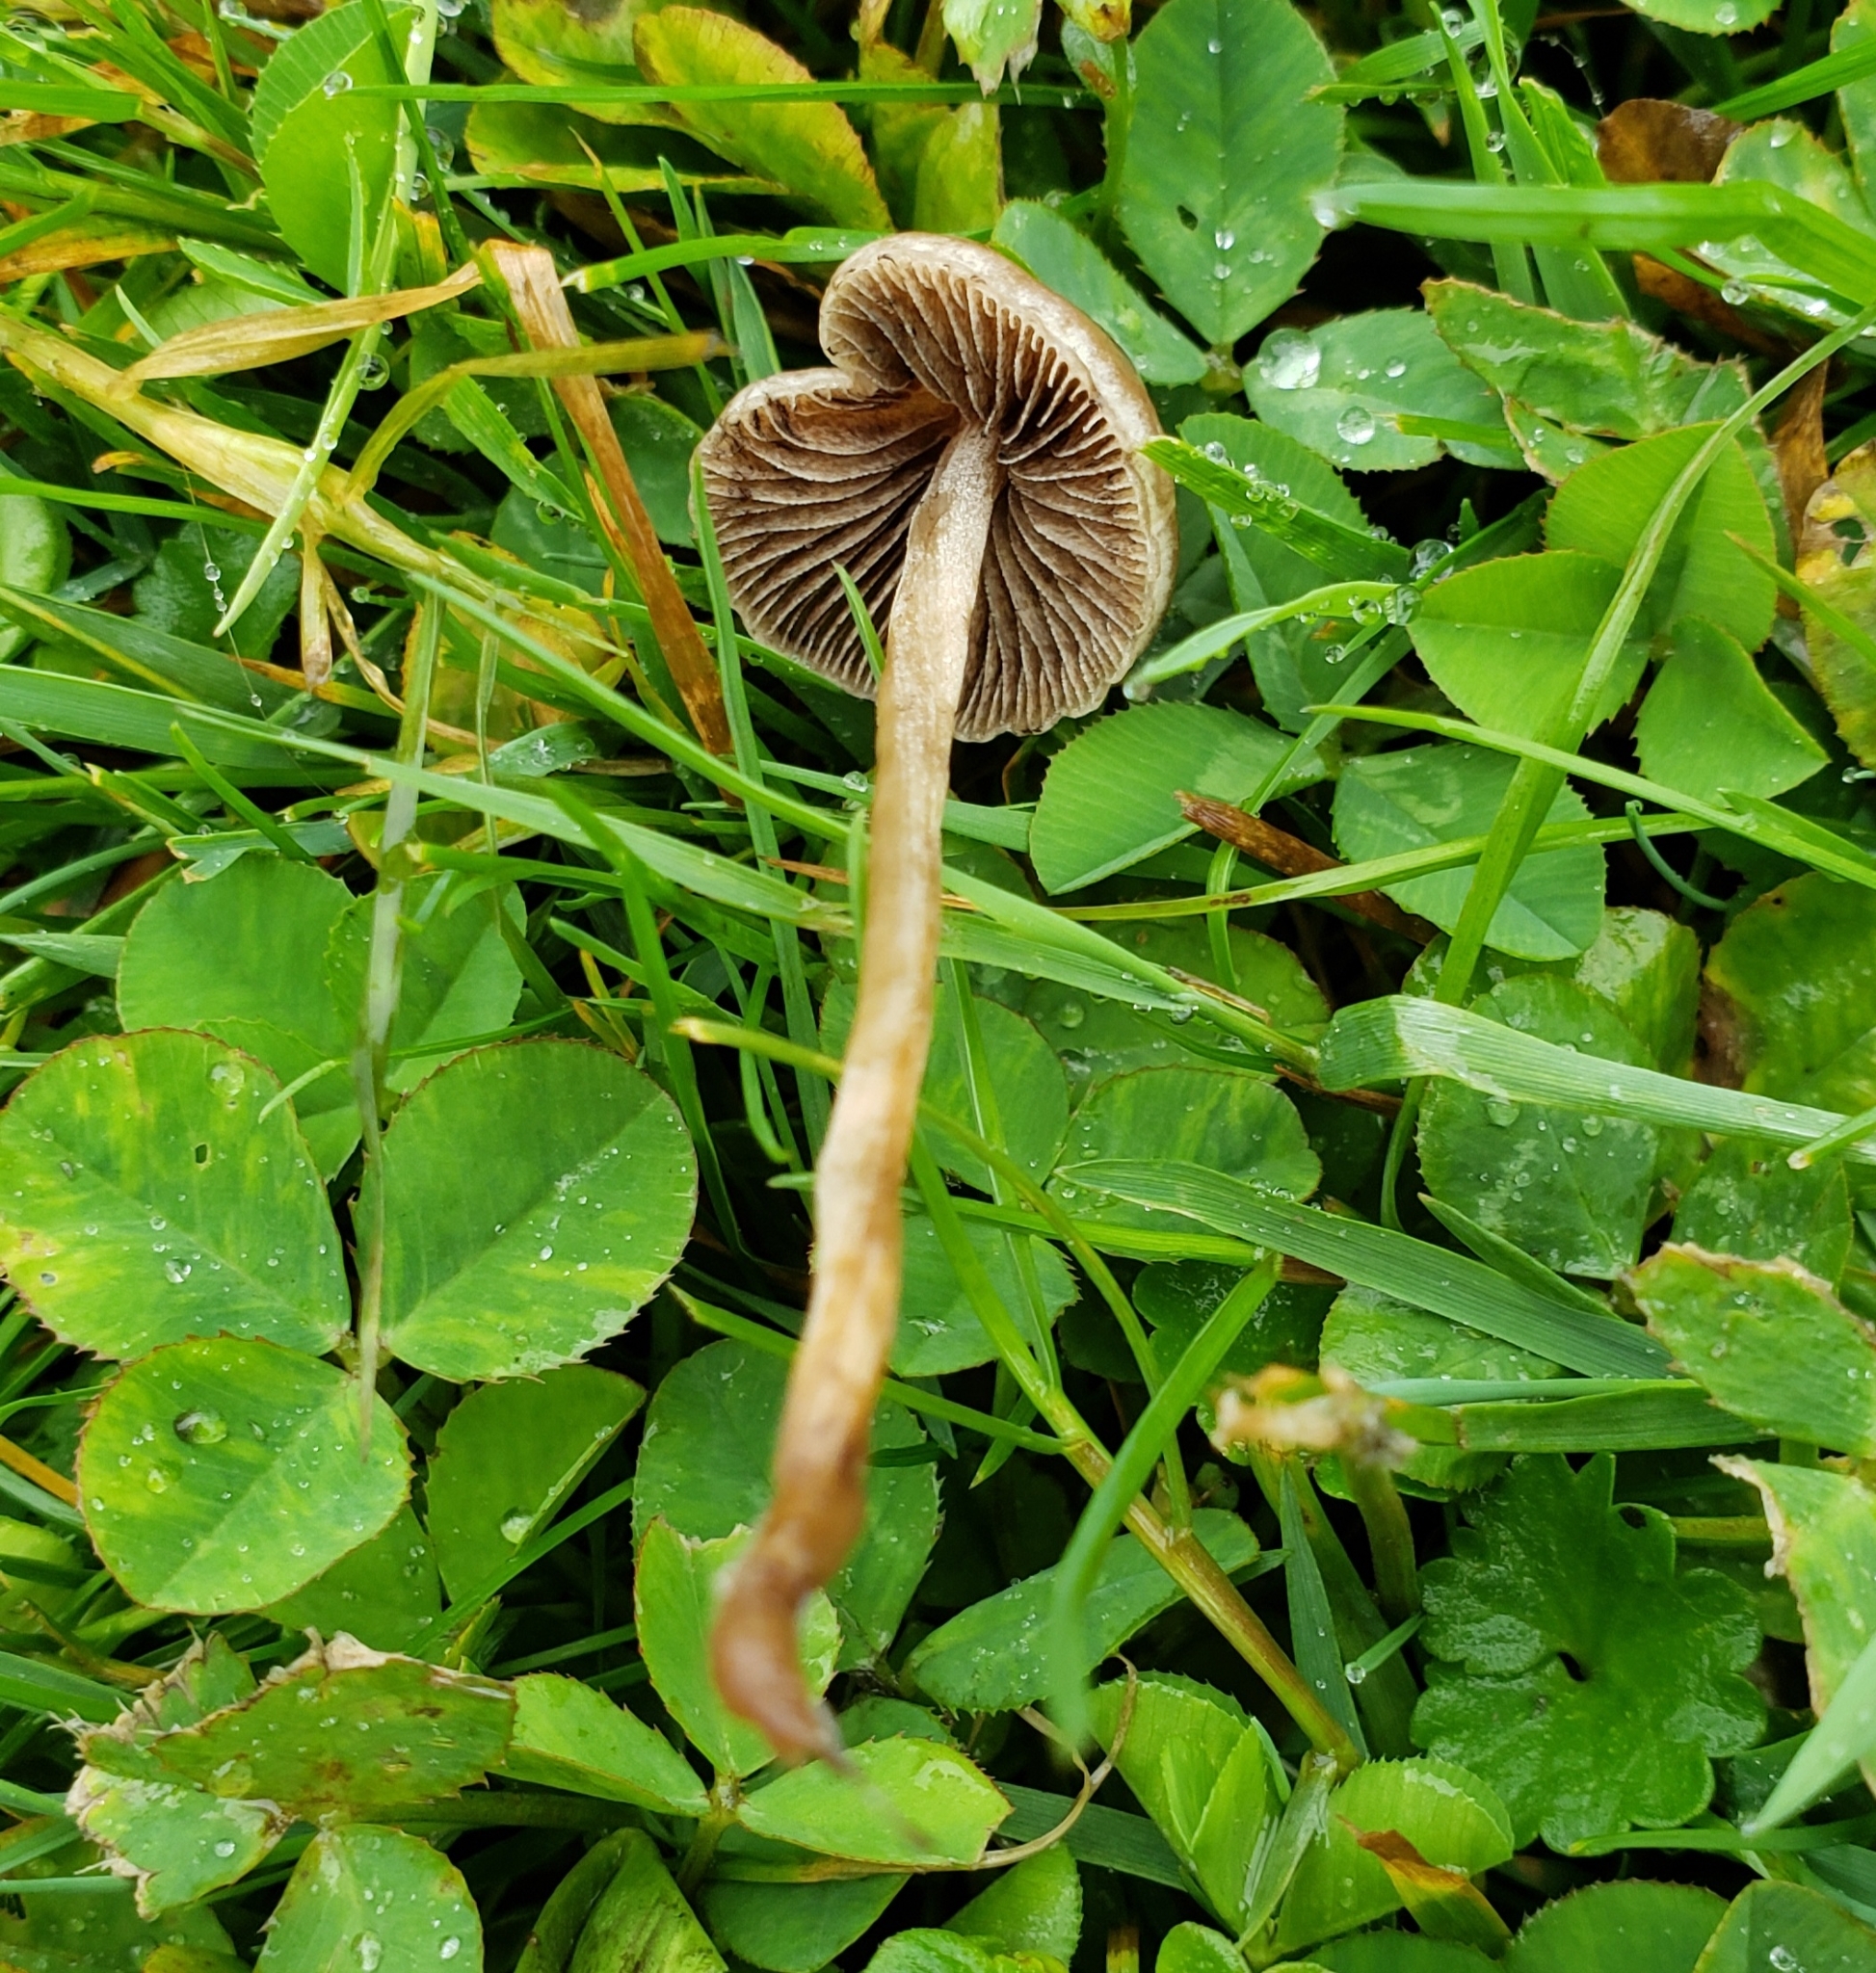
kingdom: Fungi
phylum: Basidiomycota
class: Agaricomycetes
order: Agaricales
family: Bolbitiaceae
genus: Panaeolina
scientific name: Panaeolina foenisecii
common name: Brown hay cap
